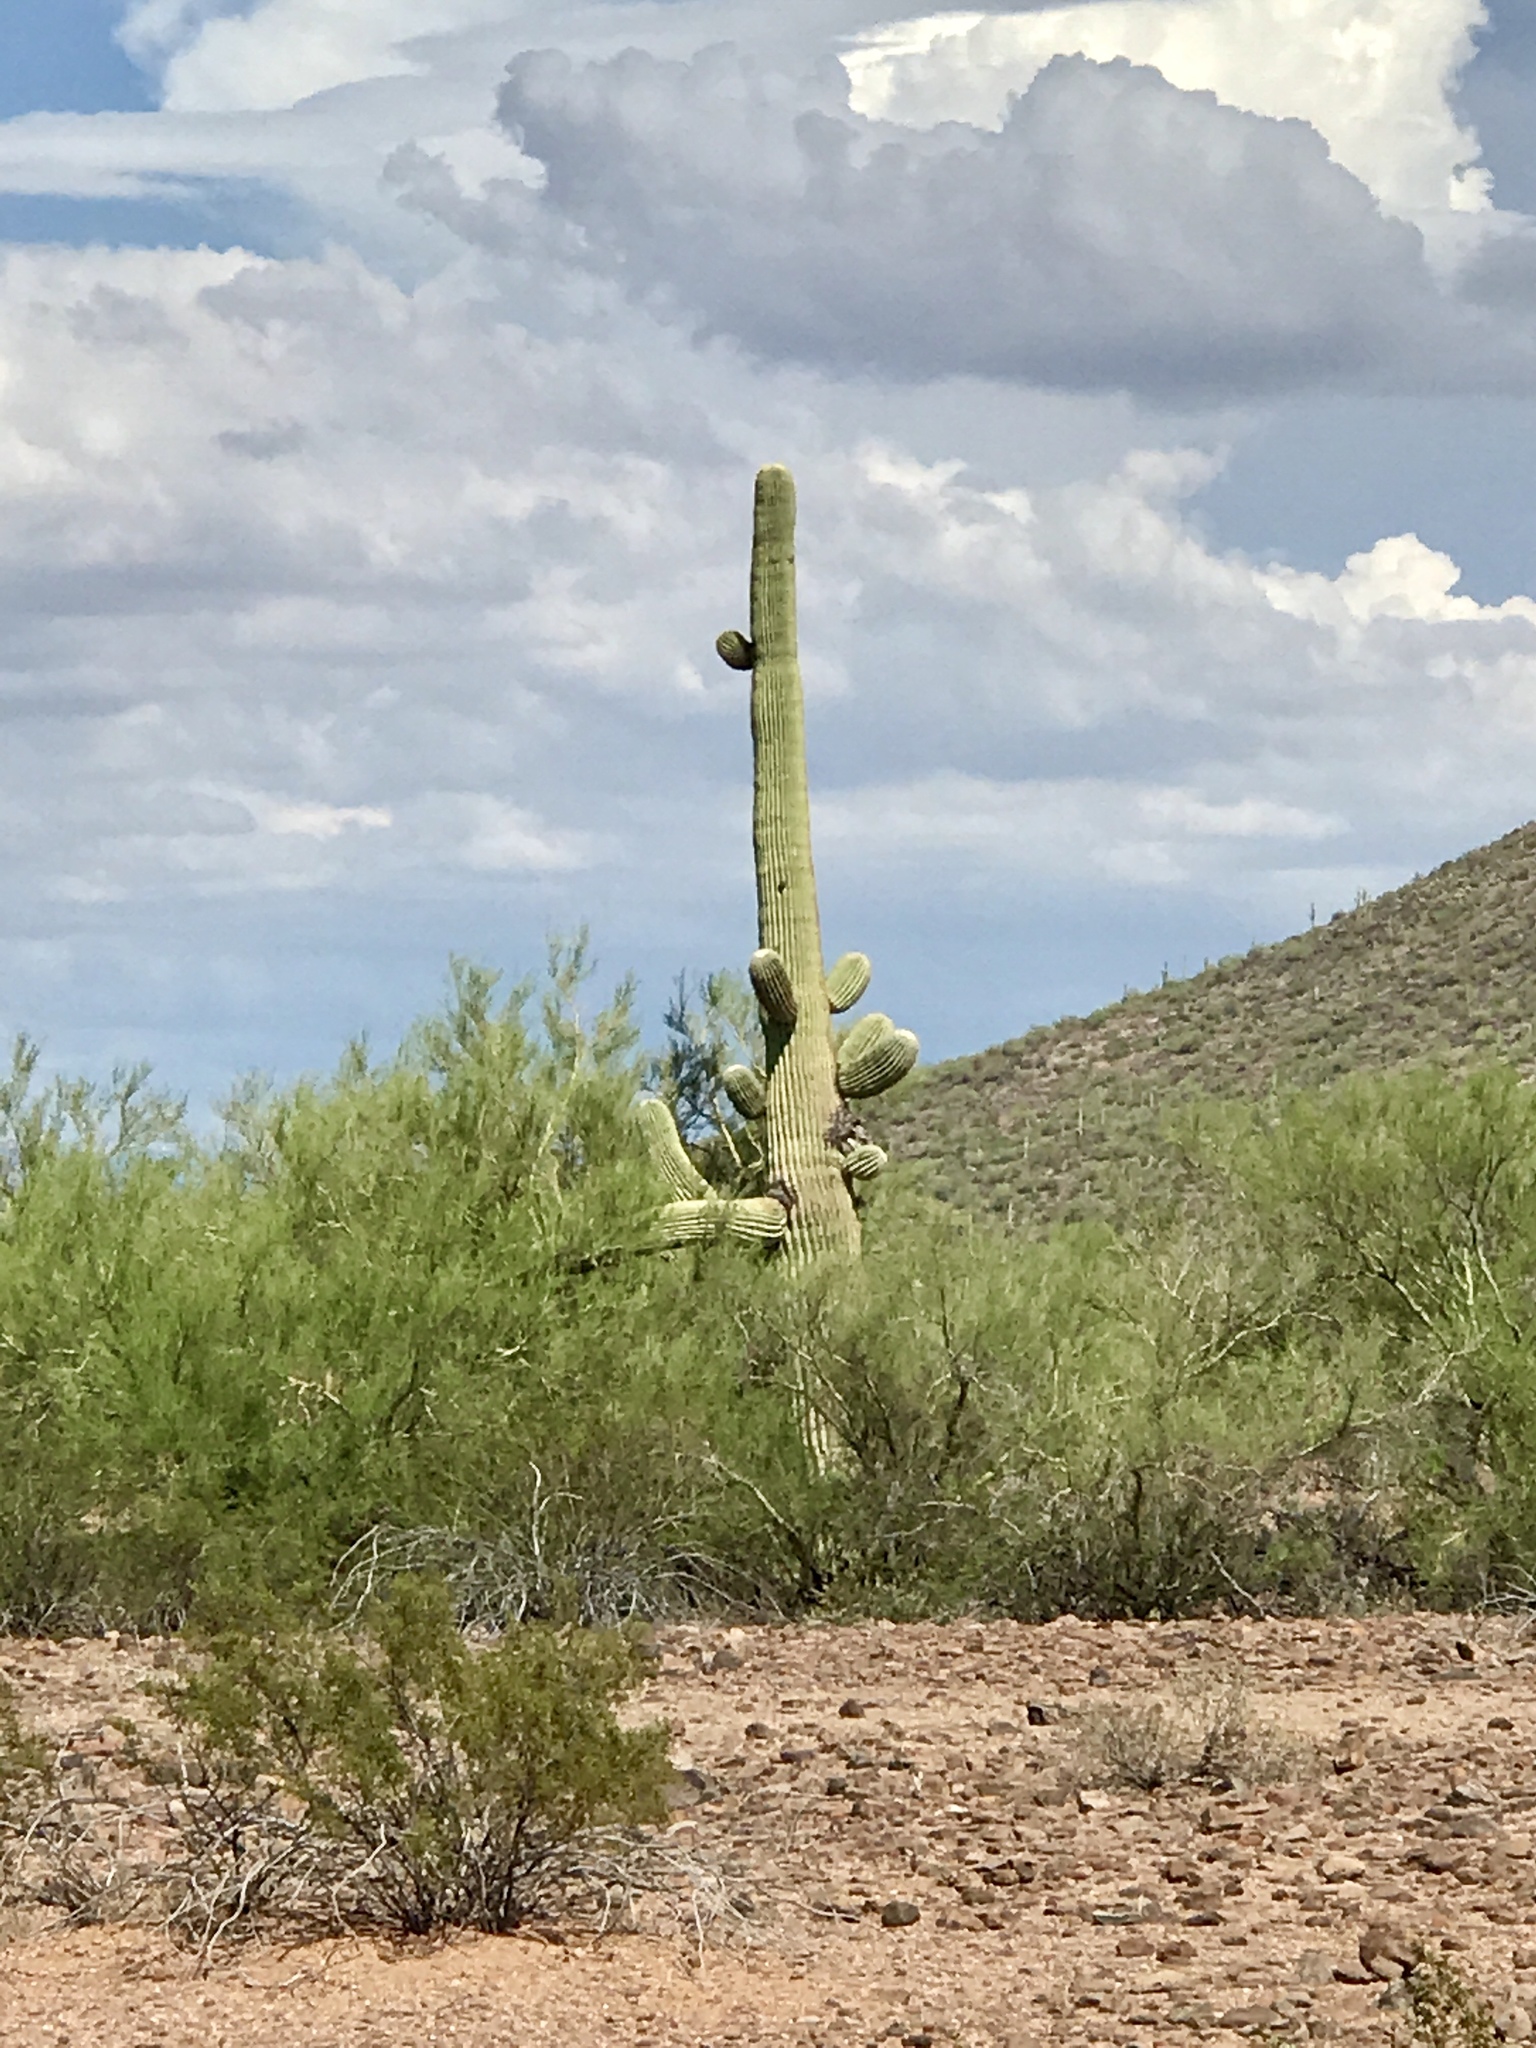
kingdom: Plantae
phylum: Tracheophyta
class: Magnoliopsida
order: Caryophyllales
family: Cactaceae
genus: Carnegiea
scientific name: Carnegiea gigantea
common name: Saguaro
